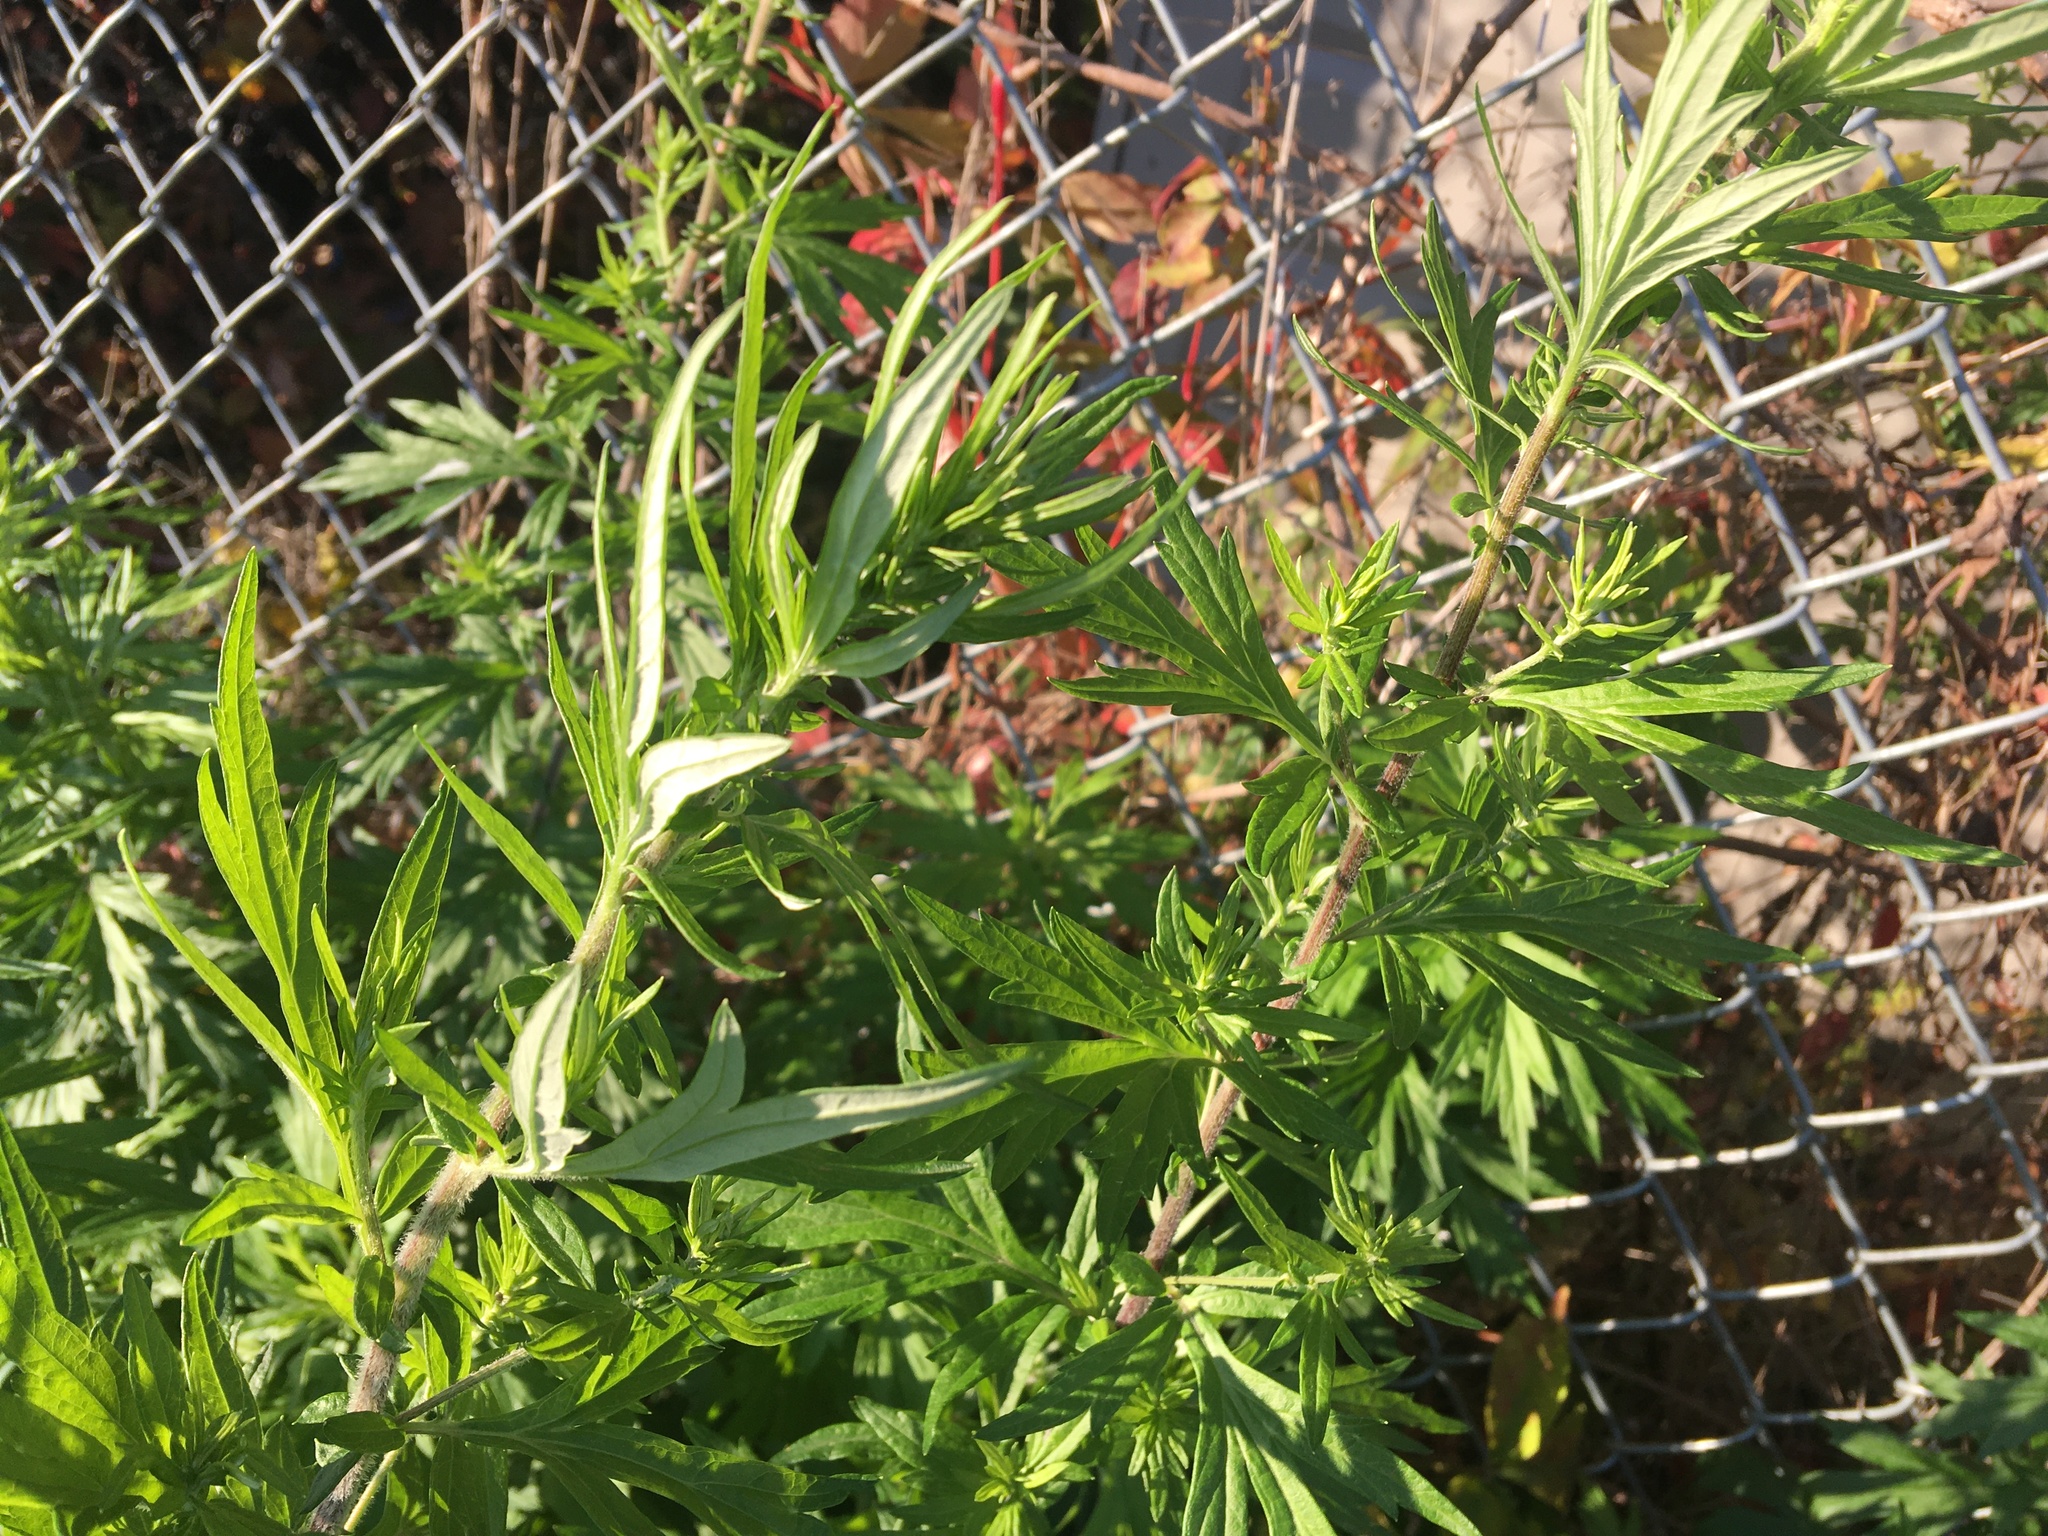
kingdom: Plantae
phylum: Tracheophyta
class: Magnoliopsida
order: Asterales
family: Asteraceae
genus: Artemisia
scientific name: Artemisia vulgaris
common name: Mugwort
